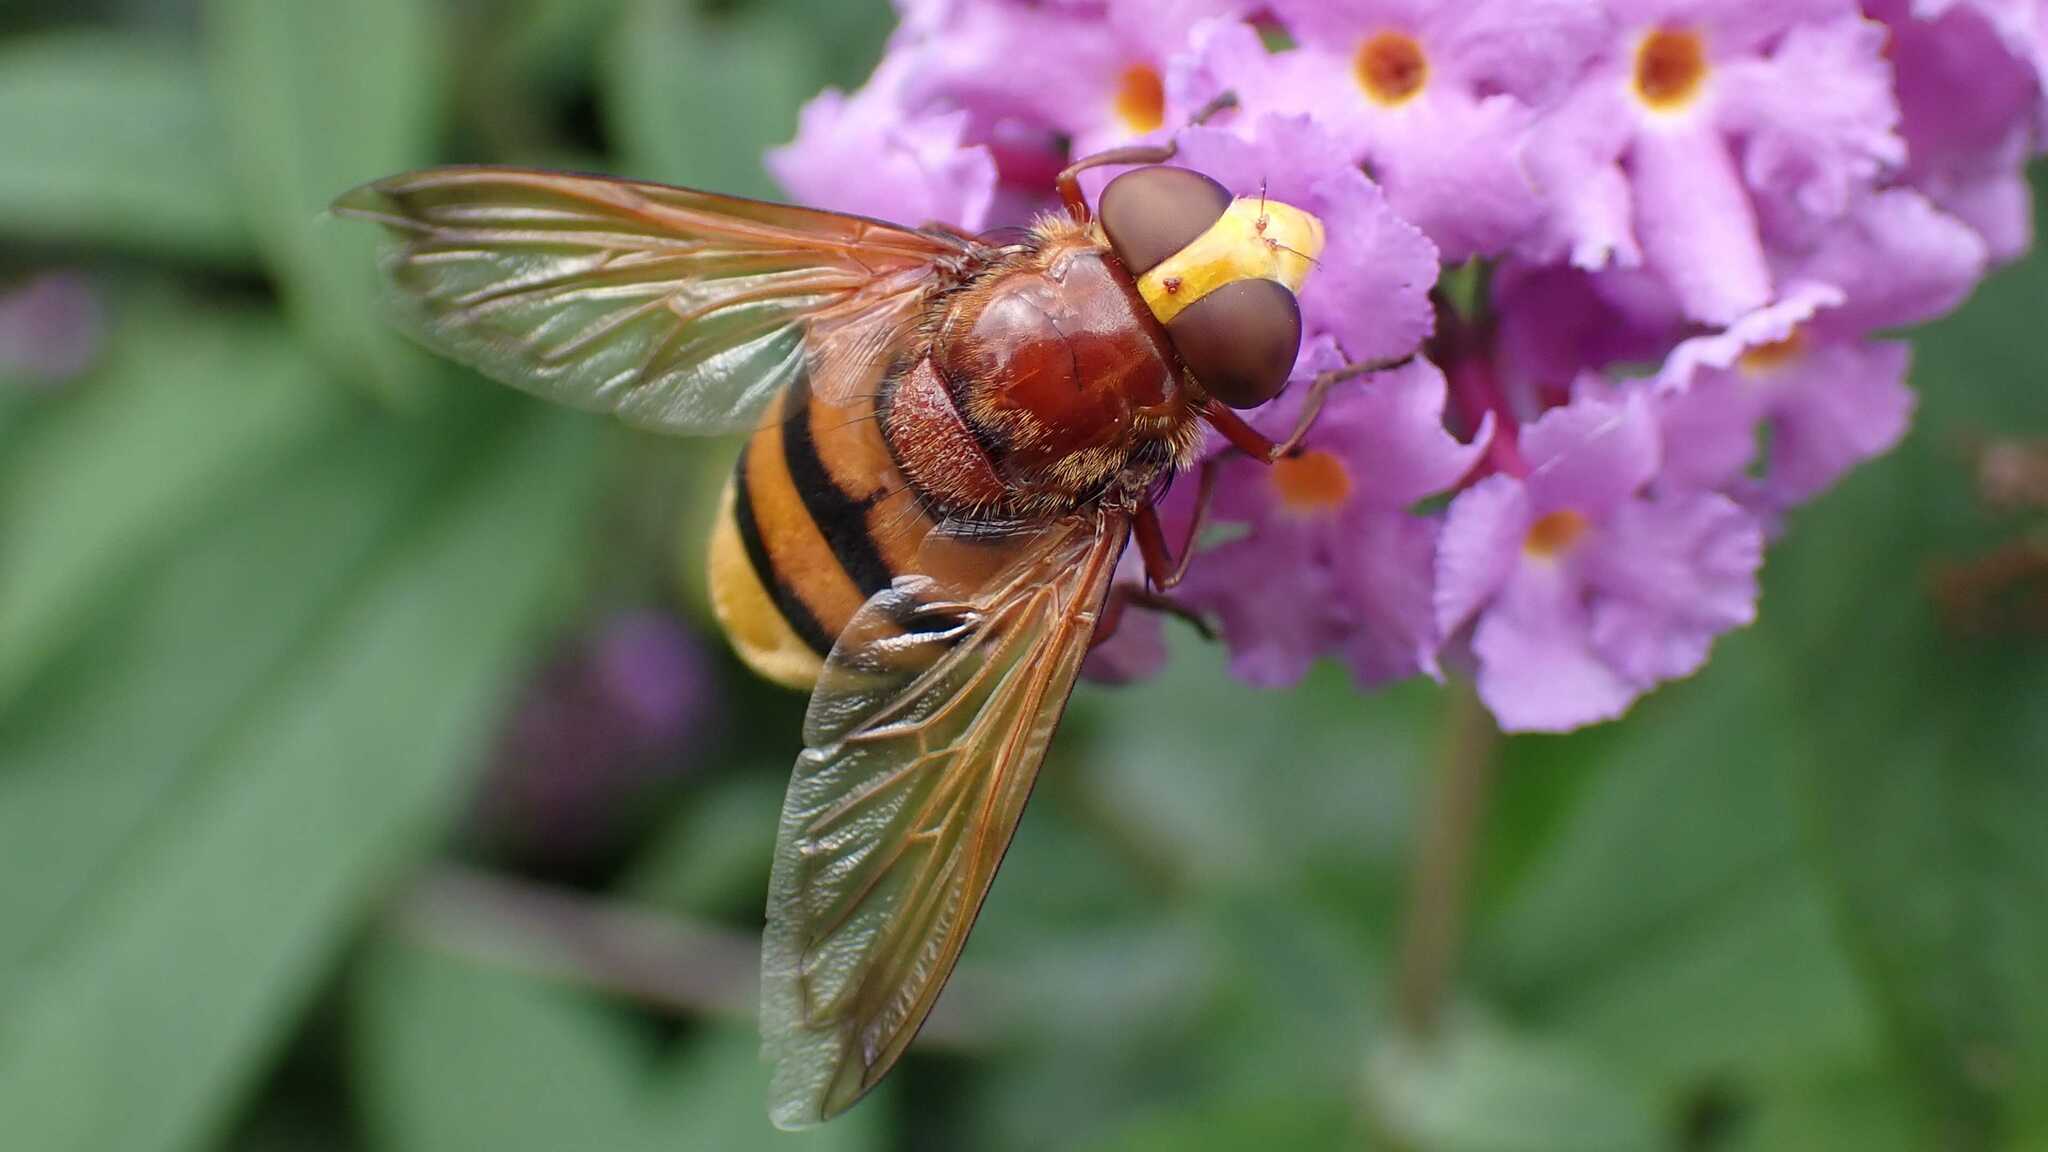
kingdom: Animalia
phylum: Arthropoda
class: Insecta
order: Diptera
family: Syrphidae
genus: Volucella
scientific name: Volucella zonaria
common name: Hornet hoverfly
